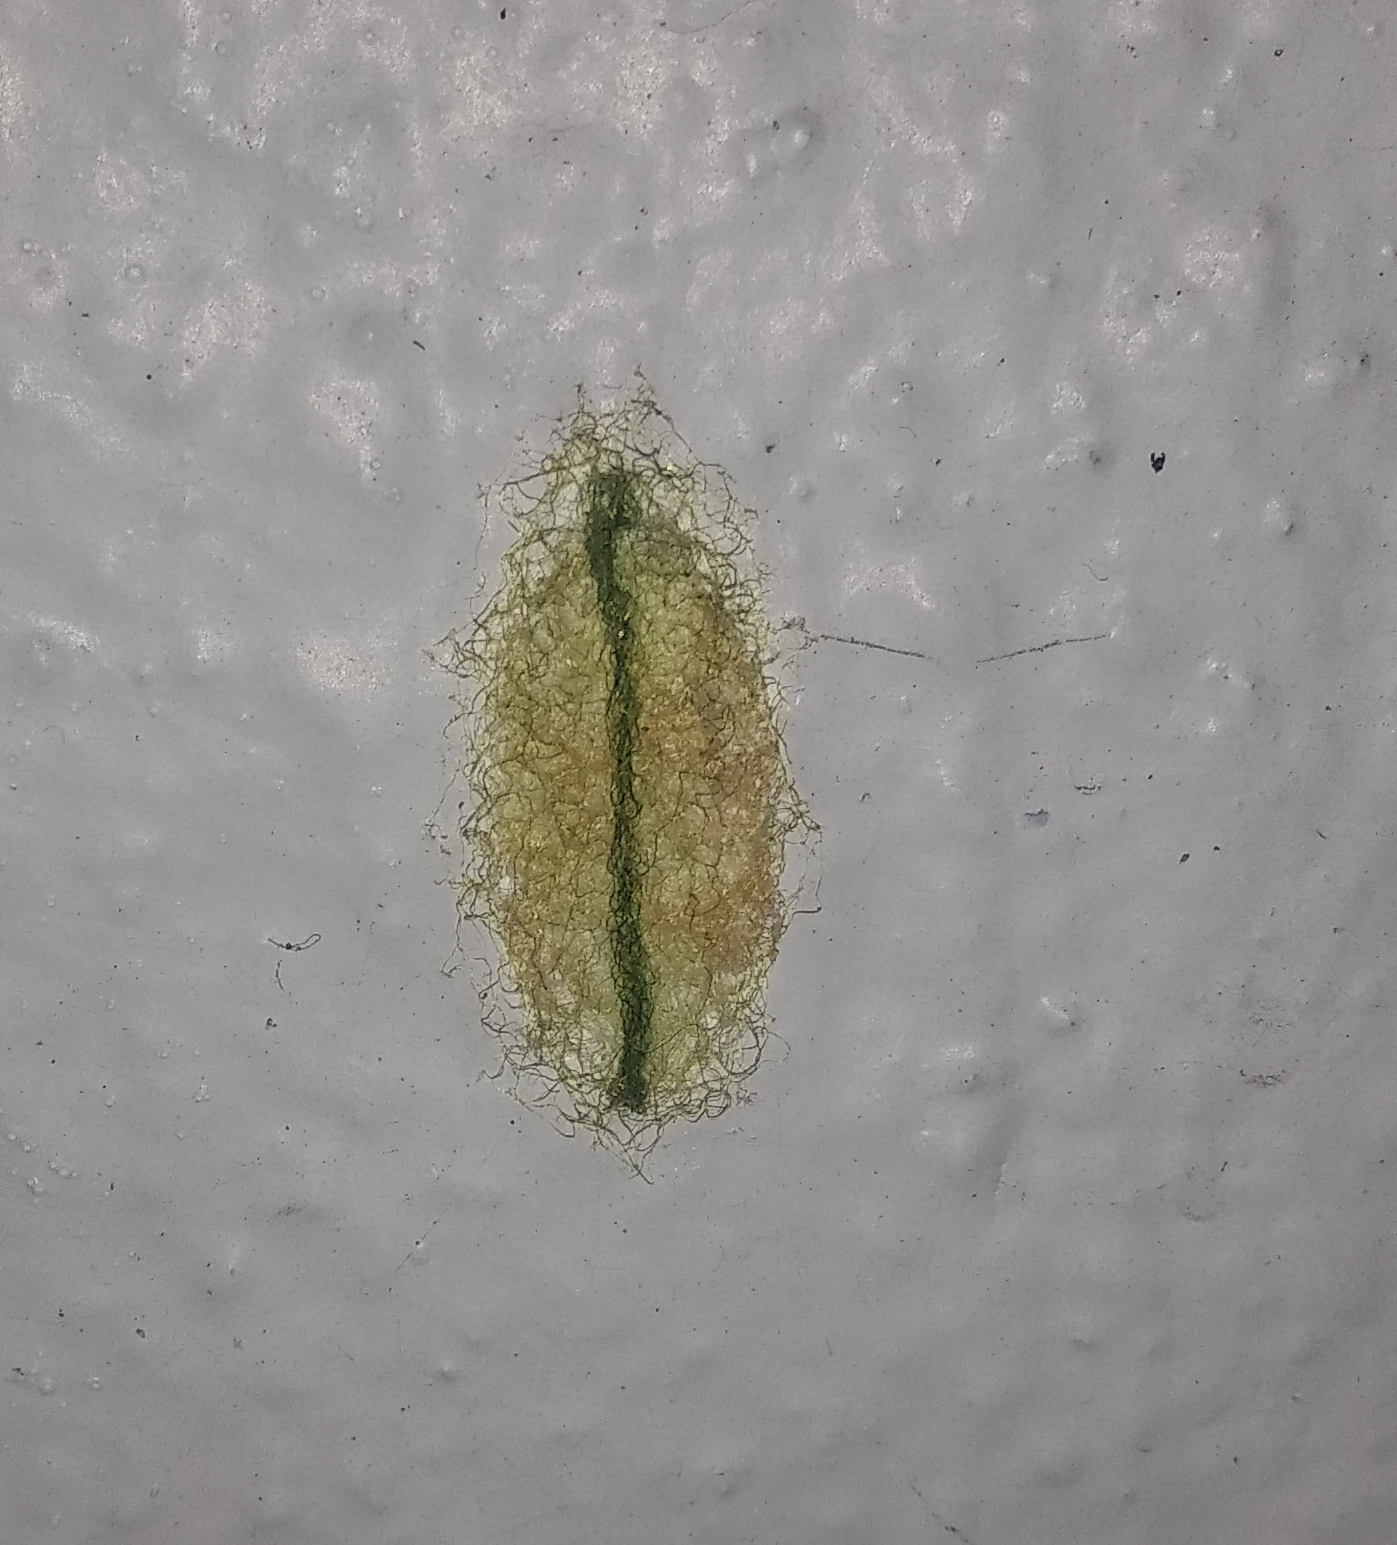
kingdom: Animalia
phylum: Arthropoda
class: Arachnida
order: Araneae
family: Araneidae
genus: Gasteracantha
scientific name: Gasteracantha geminata
